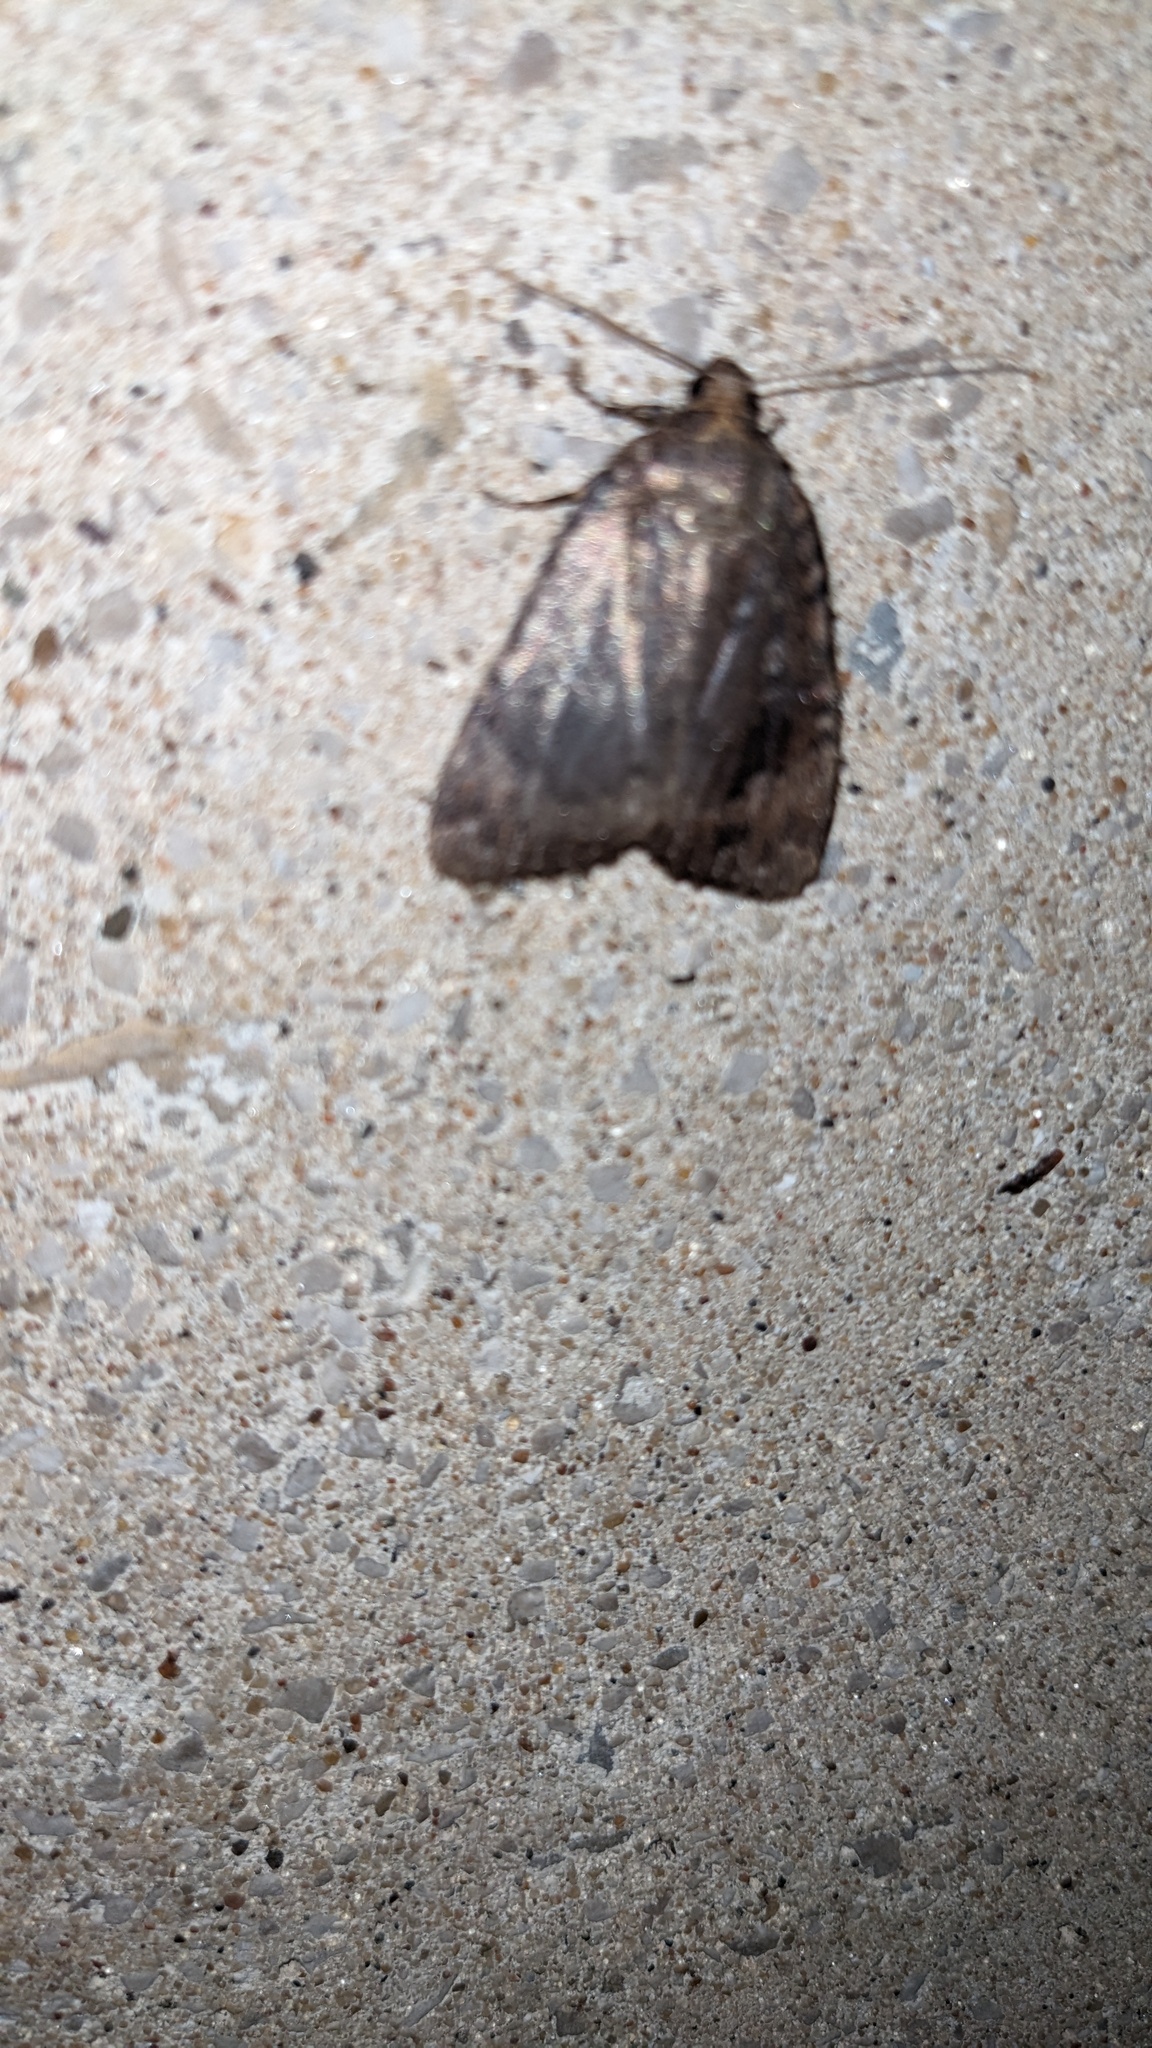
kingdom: Animalia
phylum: Arthropoda
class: Insecta
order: Lepidoptera
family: Noctuidae
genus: Amphipyra
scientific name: Amphipyra pyramidoides
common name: American copper underwing
